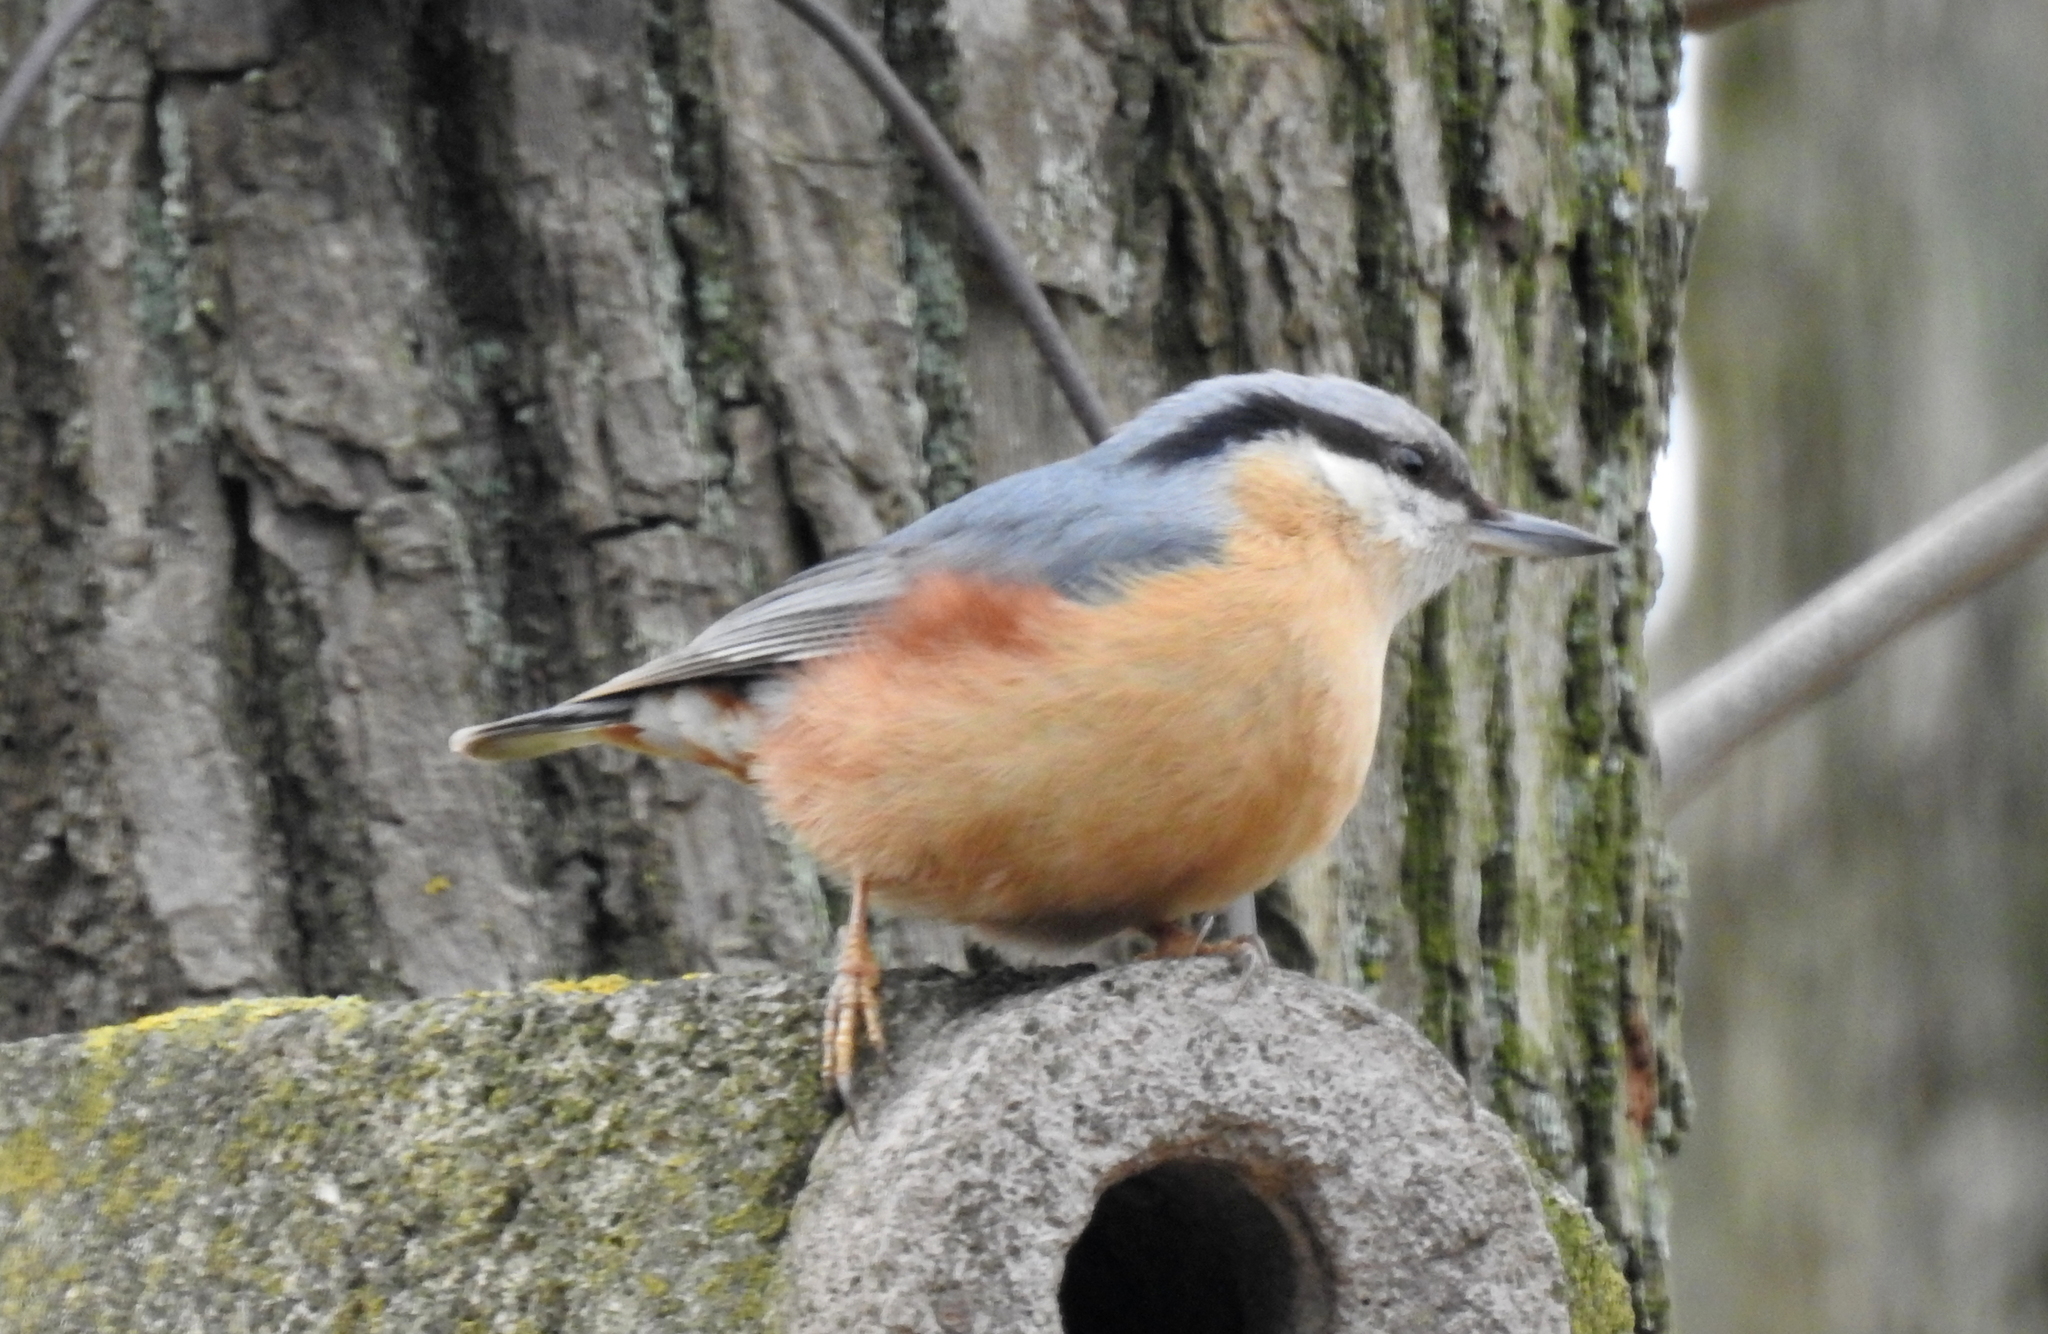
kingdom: Animalia
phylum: Chordata
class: Aves
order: Passeriformes
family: Sittidae
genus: Sitta
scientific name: Sitta europaea
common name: Eurasian nuthatch
